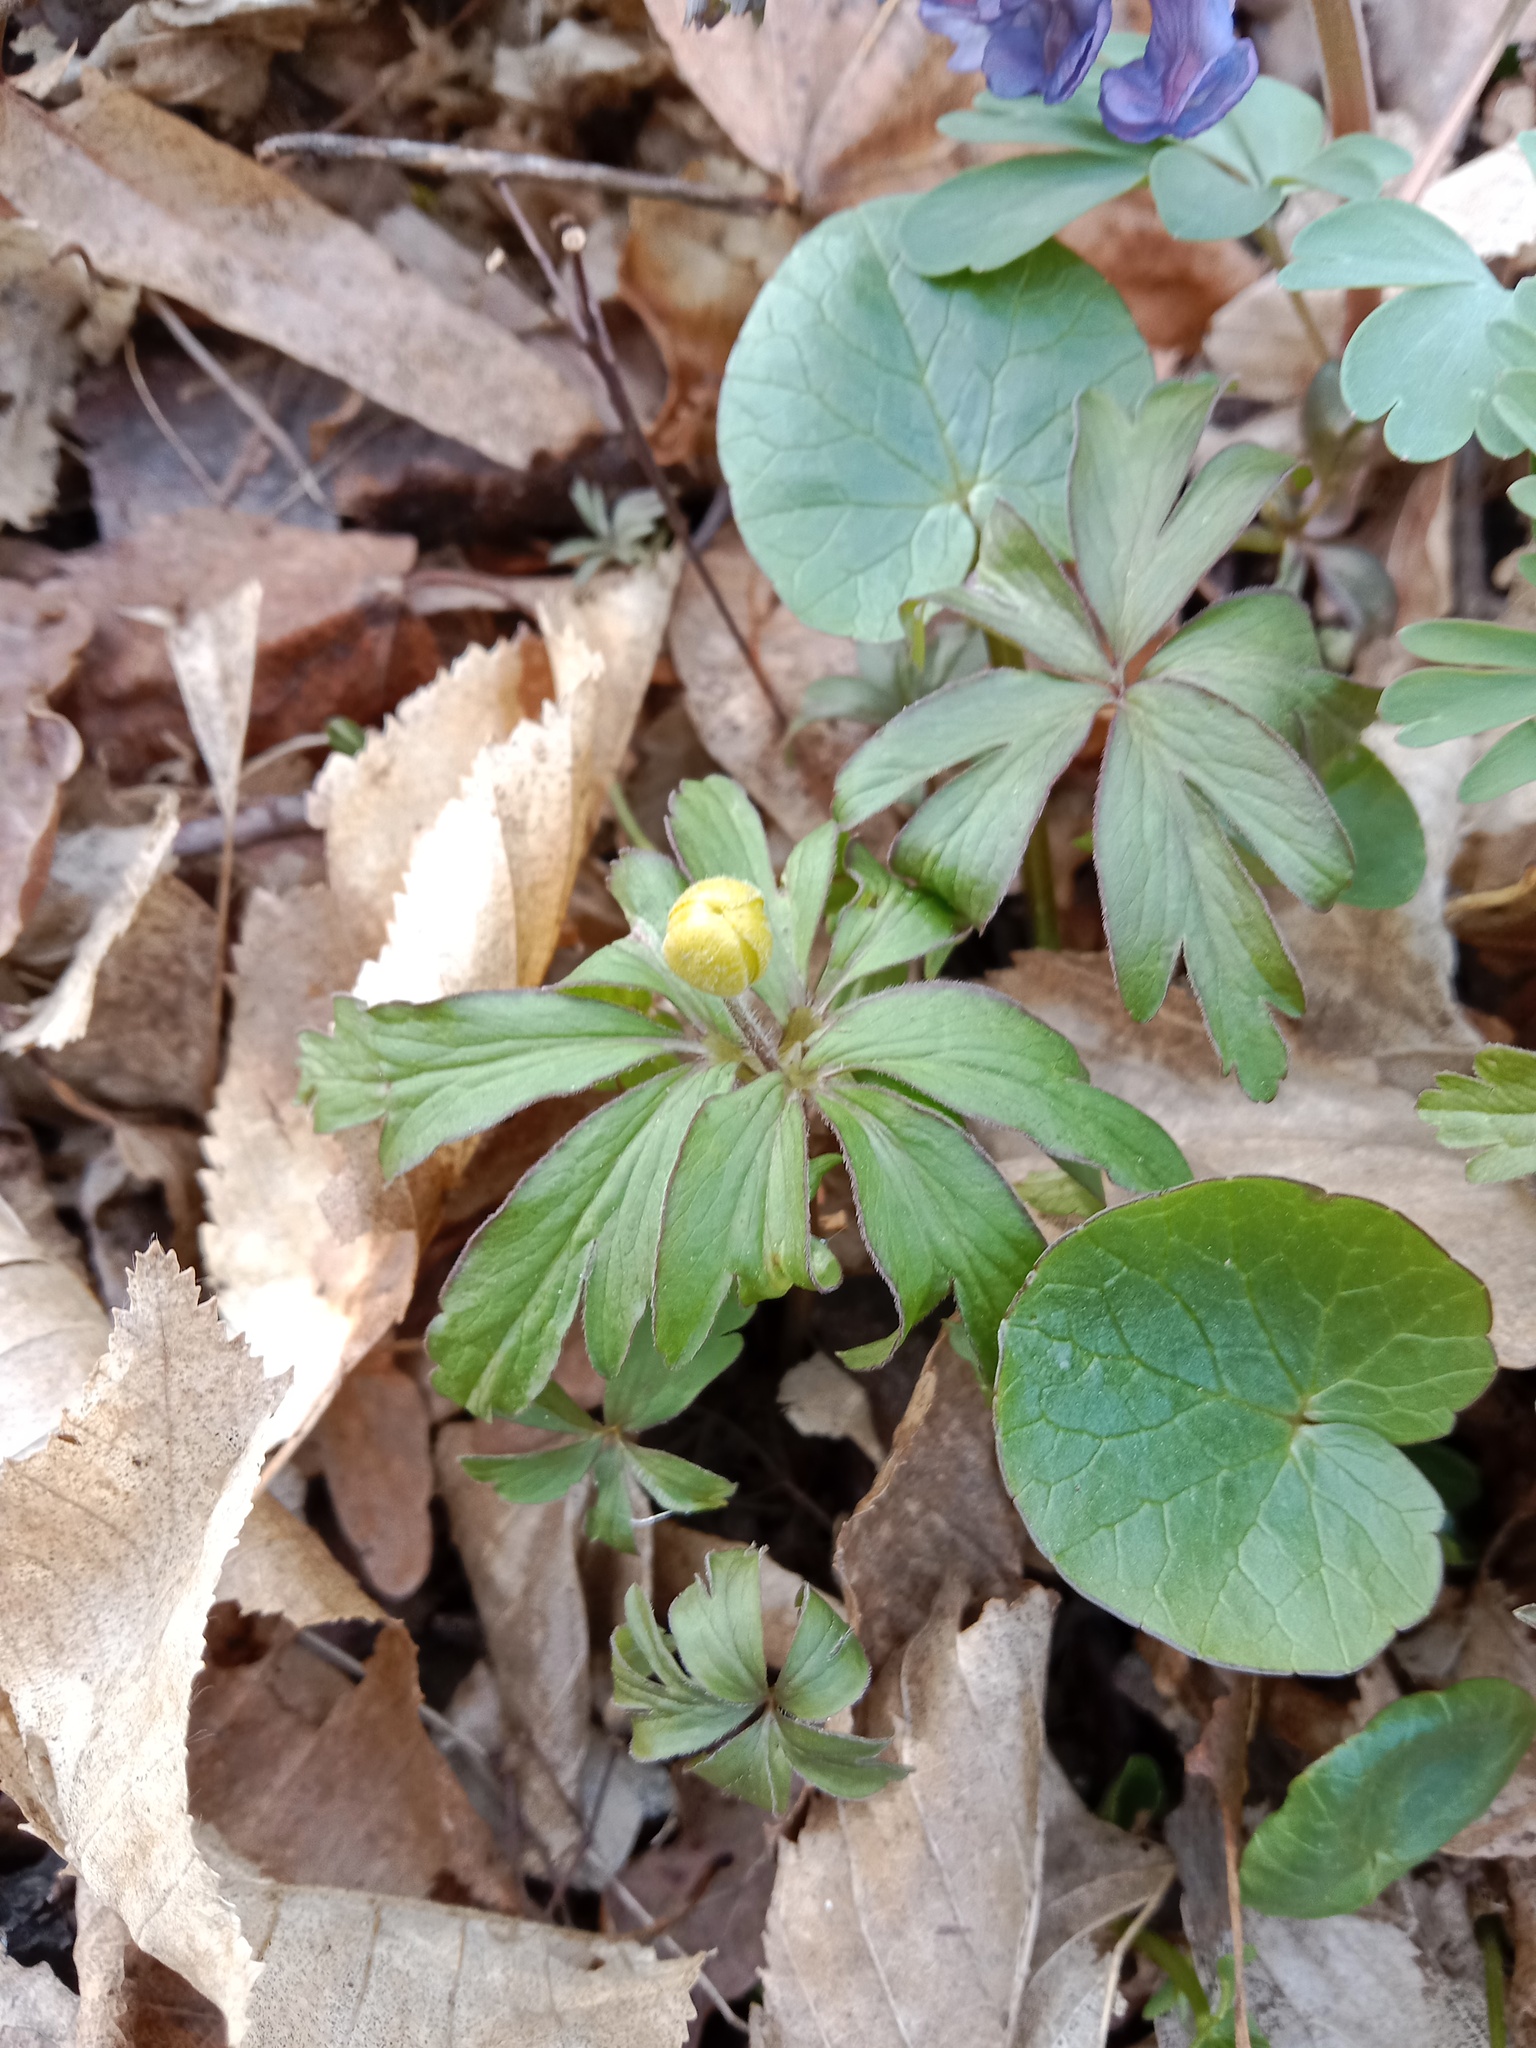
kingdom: Plantae
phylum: Tracheophyta
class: Magnoliopsida
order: Ranunculales
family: Ranunculaceae
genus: Anemone
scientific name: Anemone ranunculoides
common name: Yellow anemone
